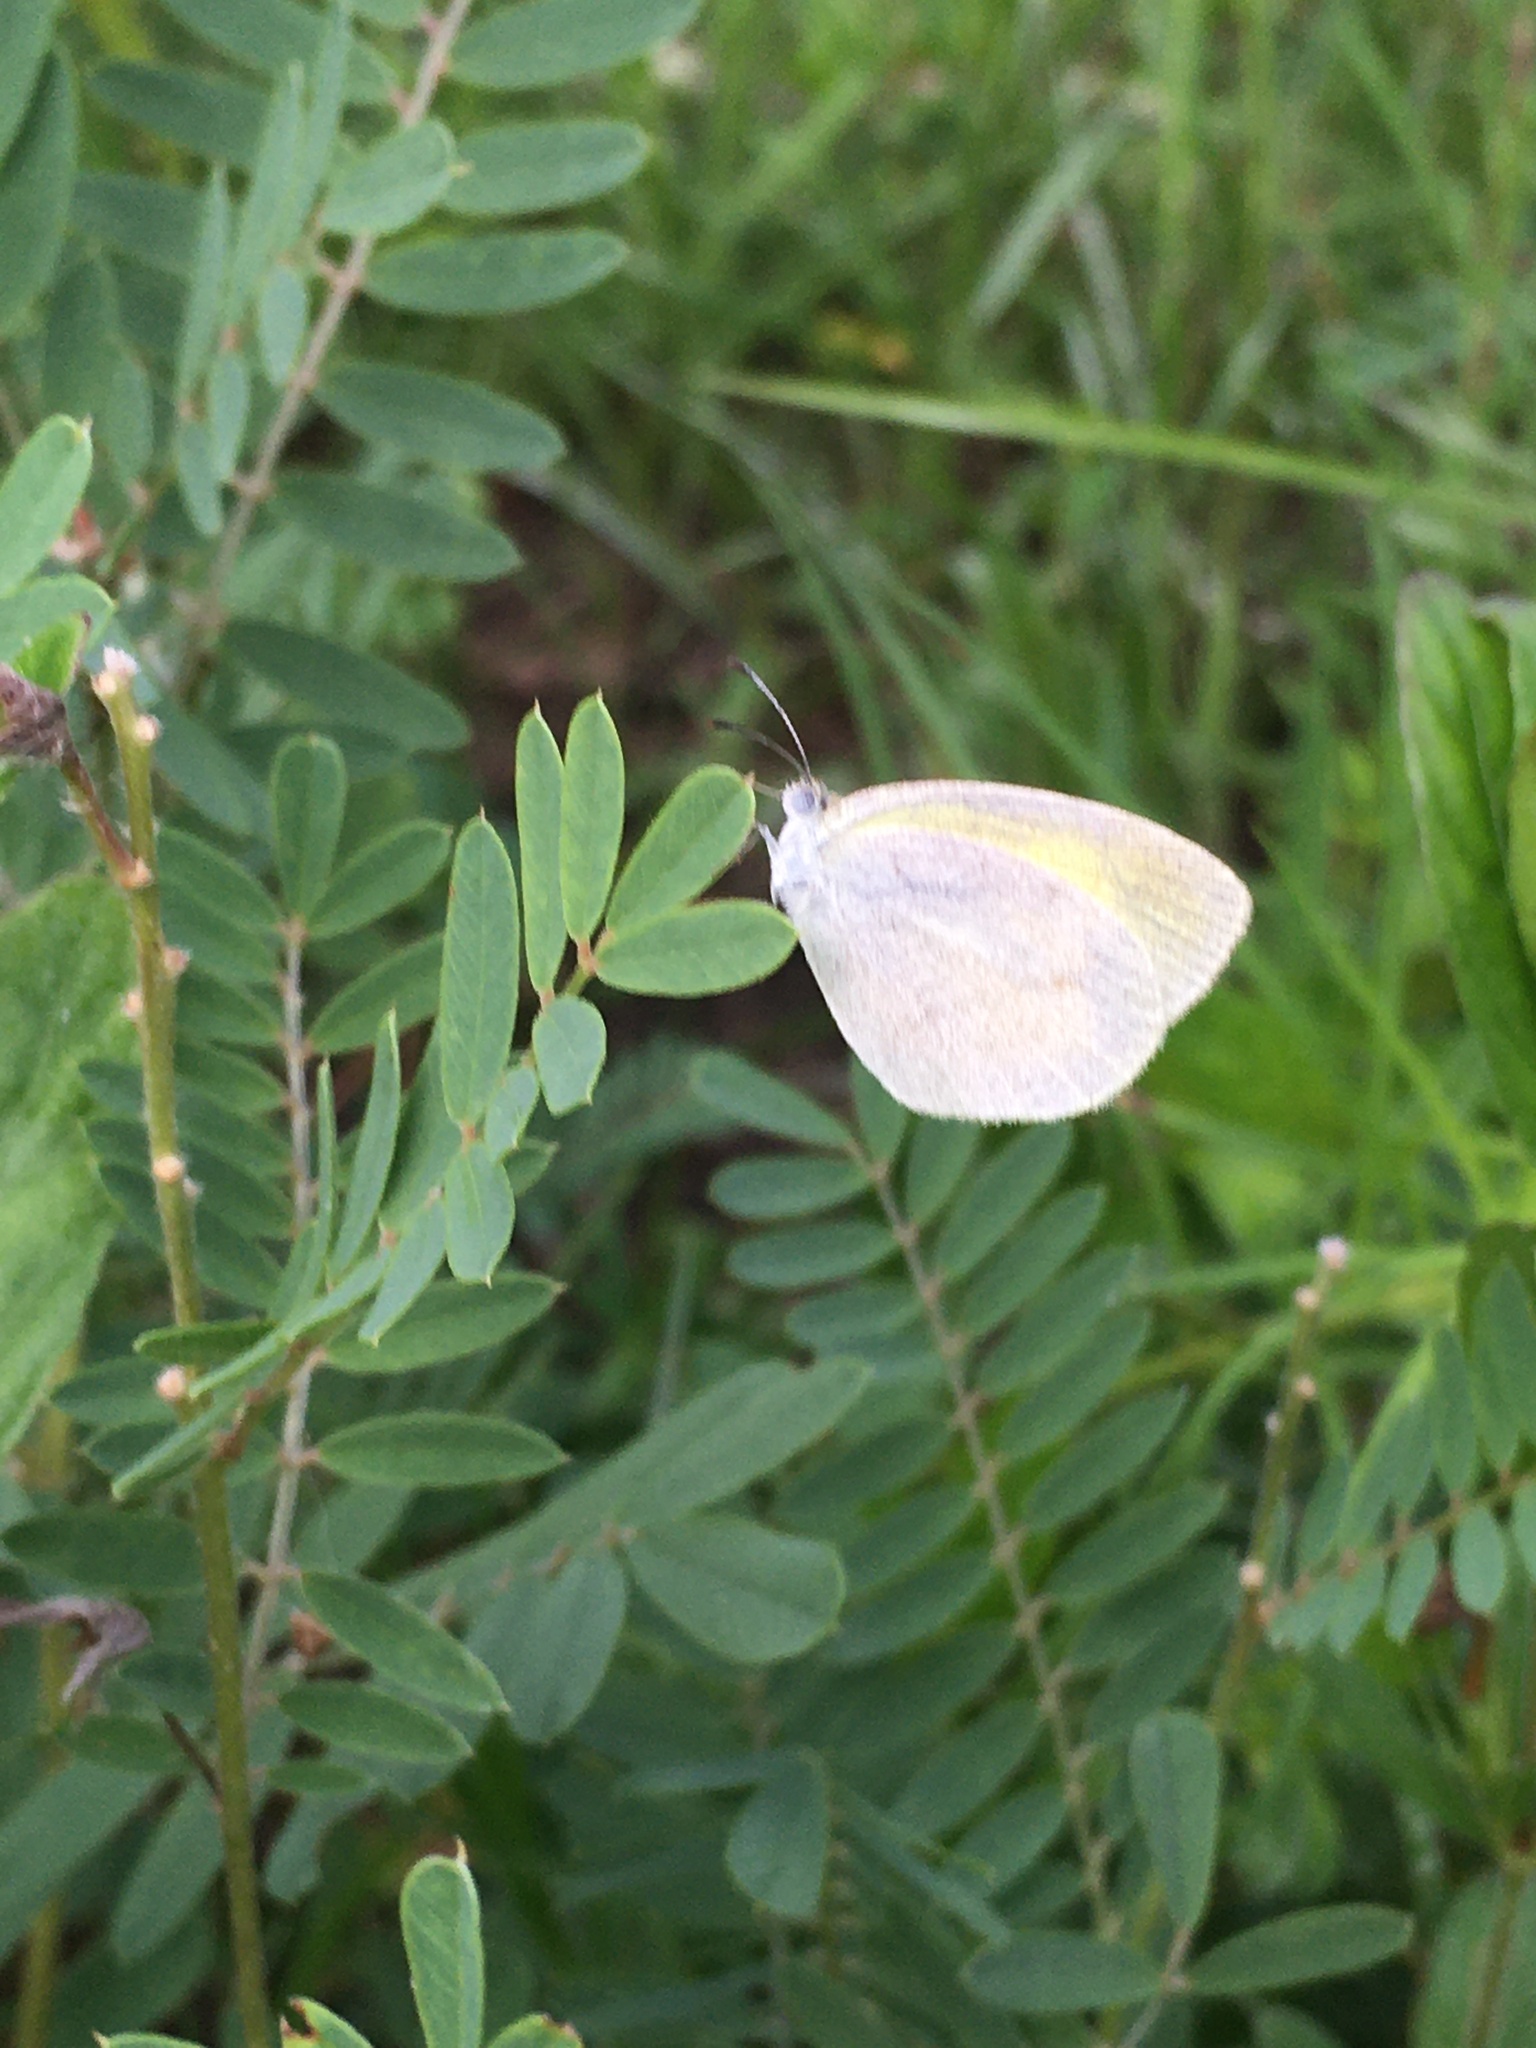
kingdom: Animalia
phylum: Arthropoda
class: Insecta
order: Lepidoptera
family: Pieridae
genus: Eurema
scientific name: Eurema daira
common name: Barred sulphur
